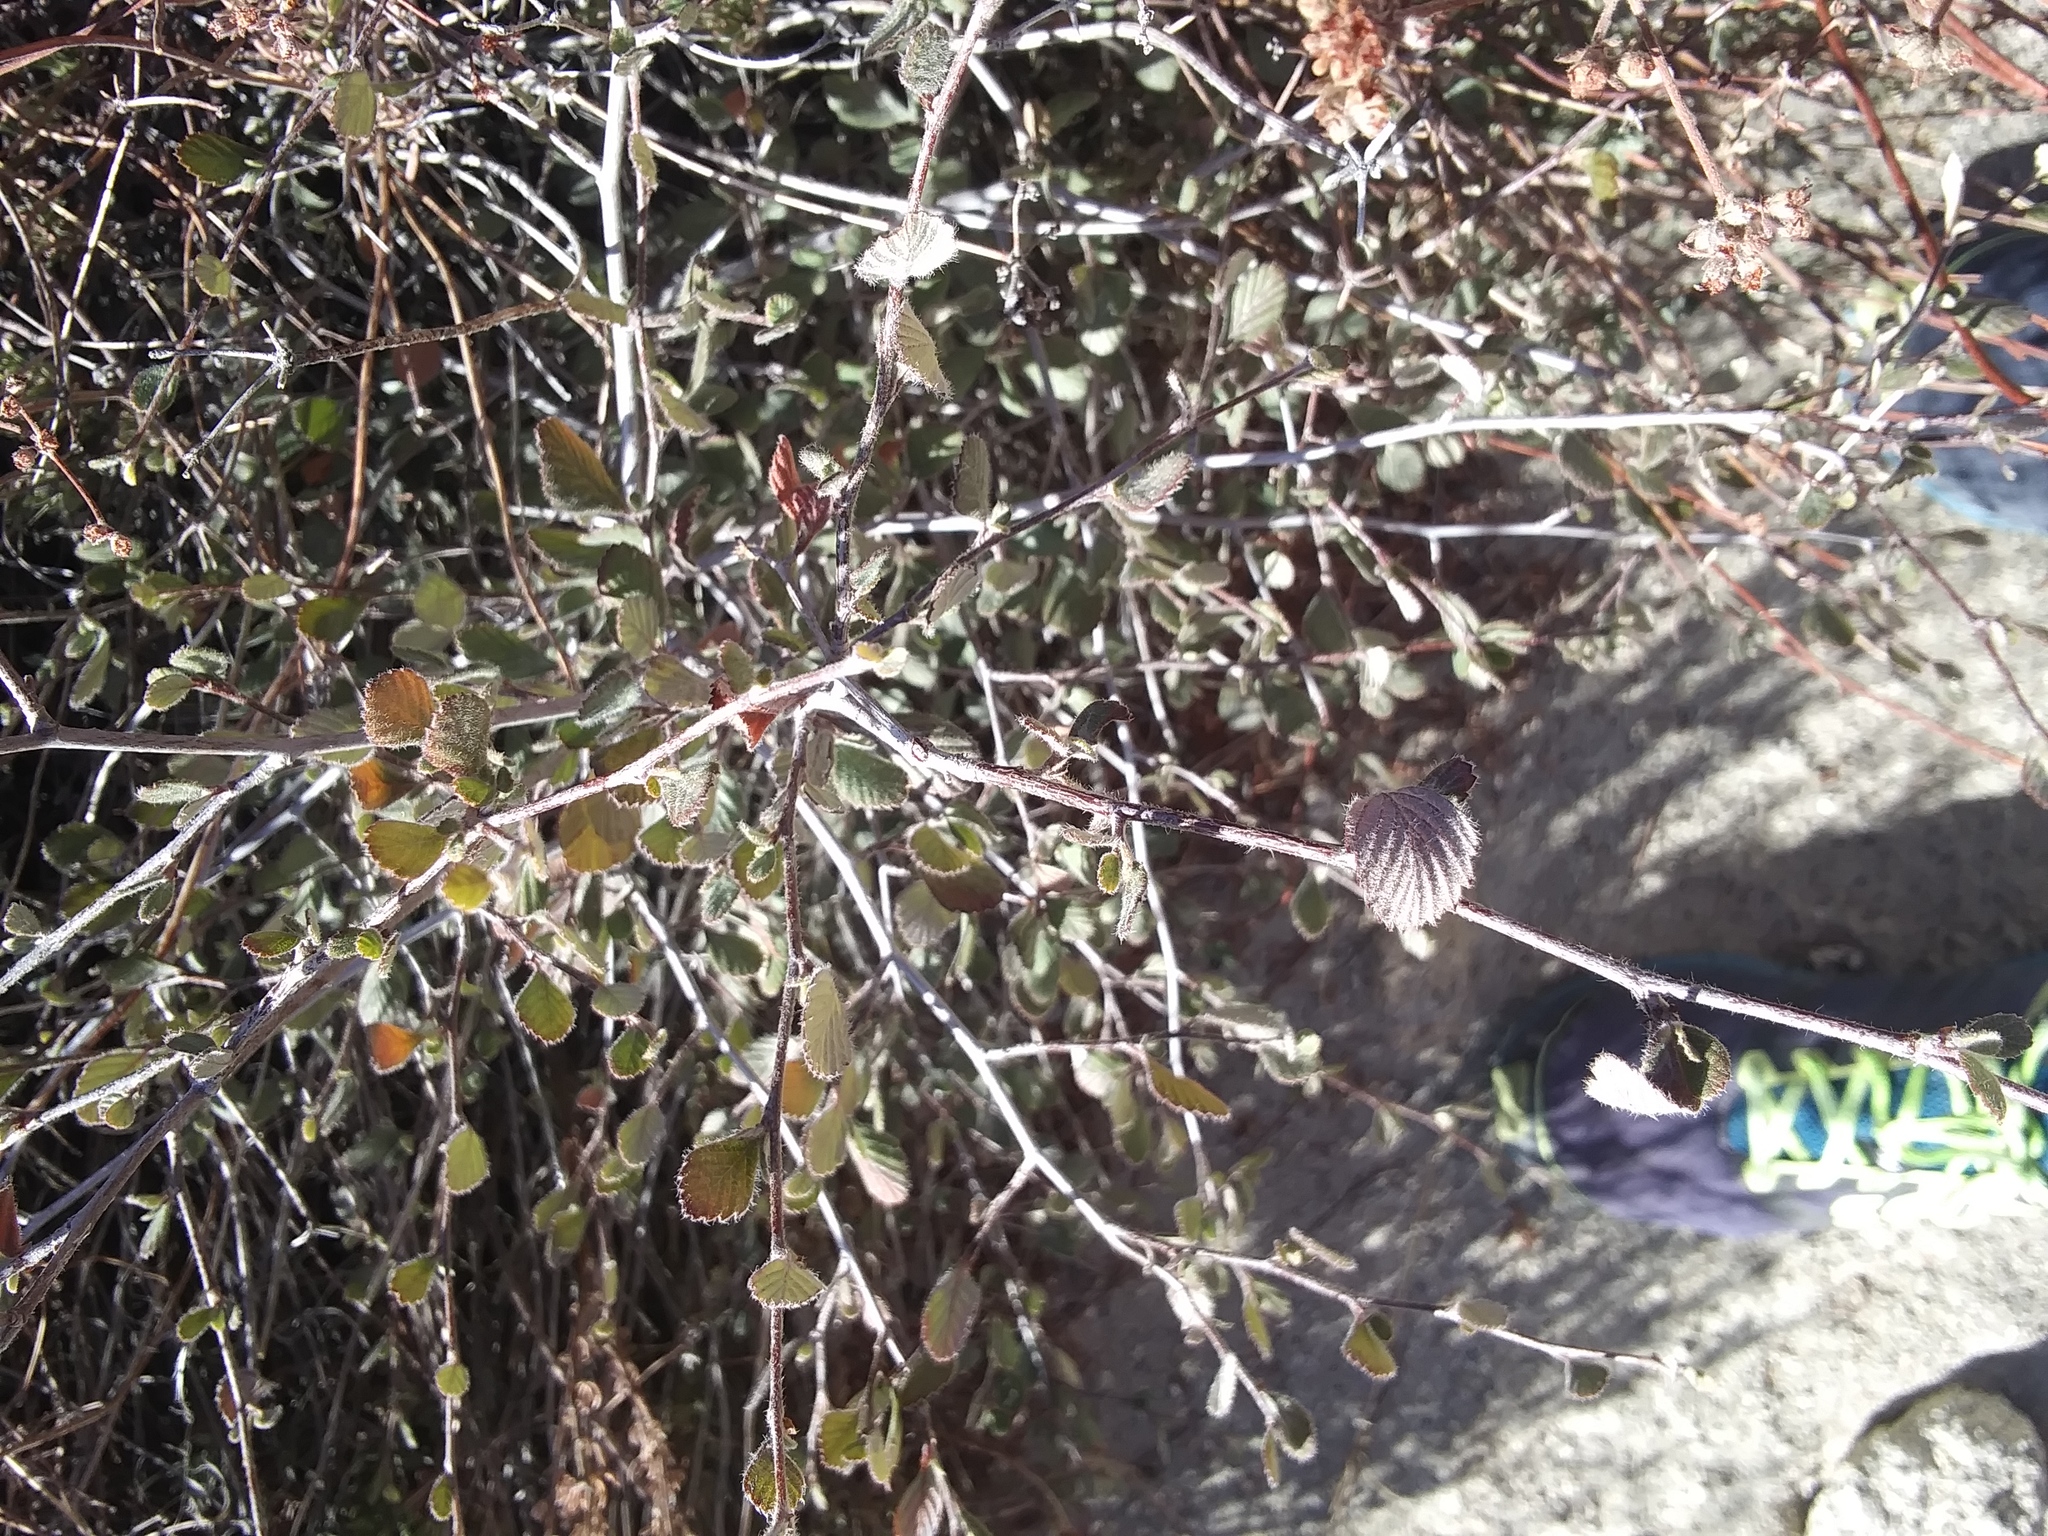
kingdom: Plantae
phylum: Tracheophyta
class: Magnoliopsida
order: Rosales
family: Rosaceae
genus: Cercocarpus
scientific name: Cercocarpus betuloides
